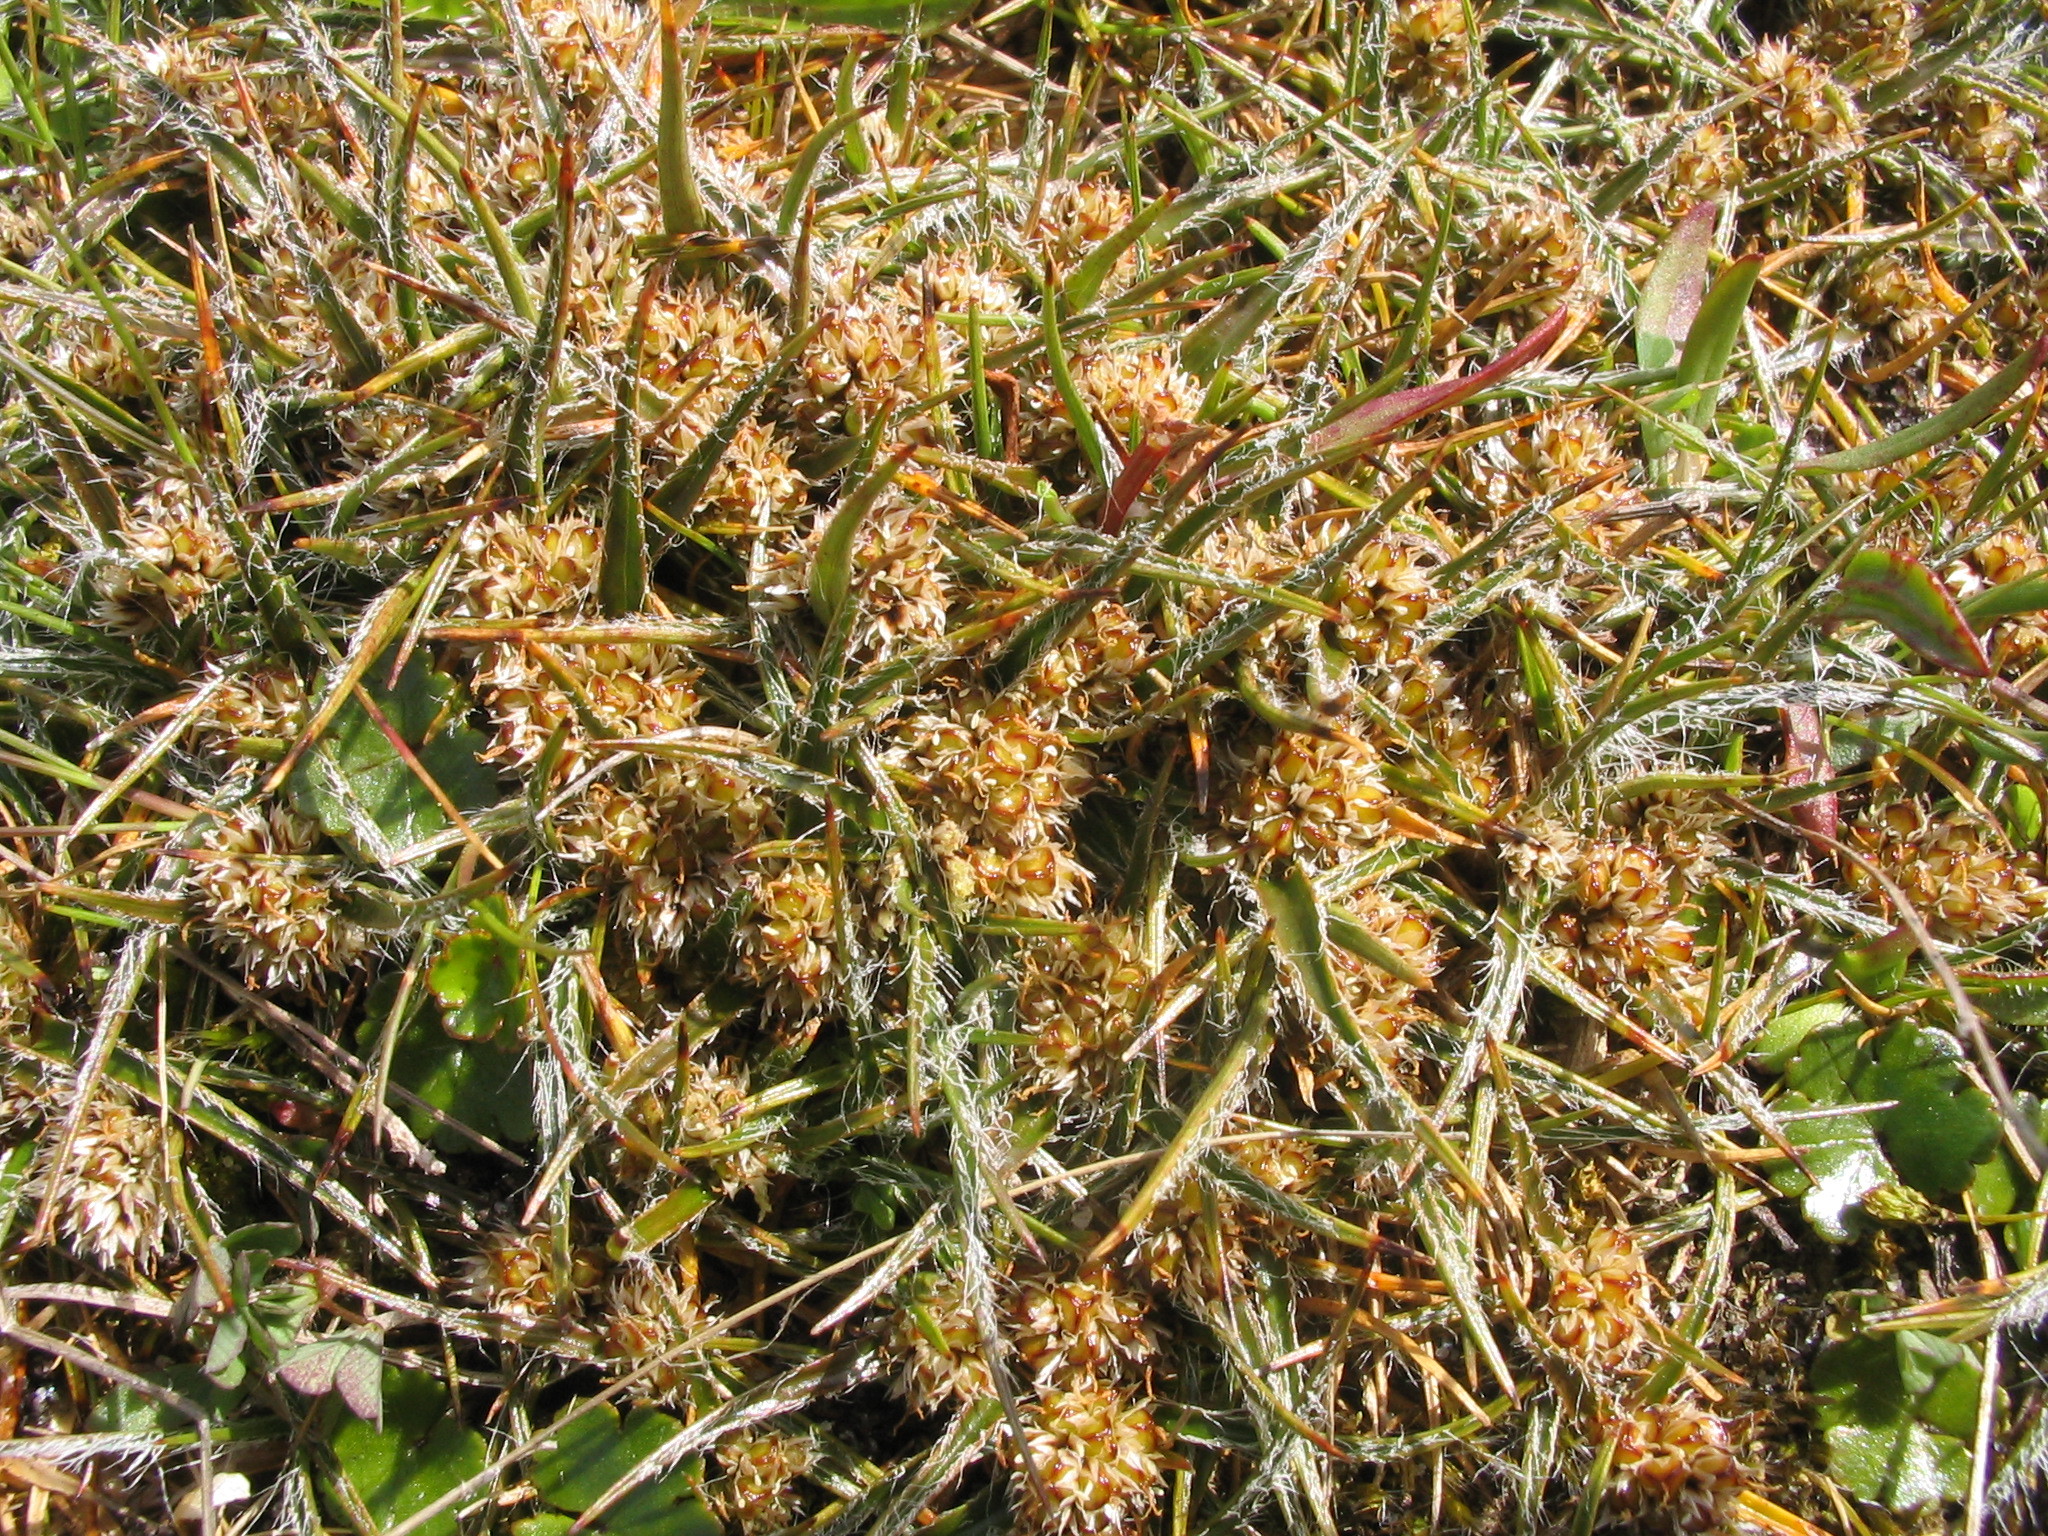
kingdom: Plantae
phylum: Tracheophyta
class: Liliopsida
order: Poales
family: Juncaceae
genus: Luzula
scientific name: Luzula celata
